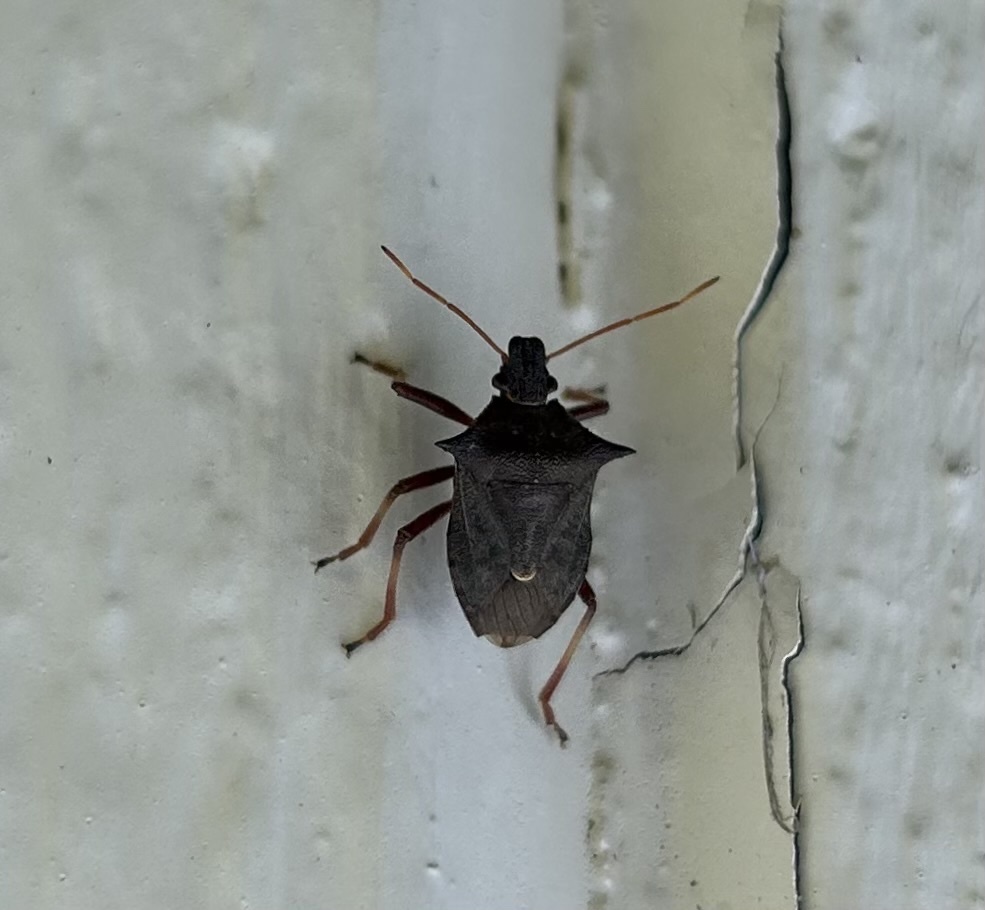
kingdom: Animalia
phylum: Arthropoda
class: Insecta
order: Hemiptera
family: Pentatomidae
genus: Picromerus
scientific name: Picromerus bidens
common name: Spiked shieldbug
